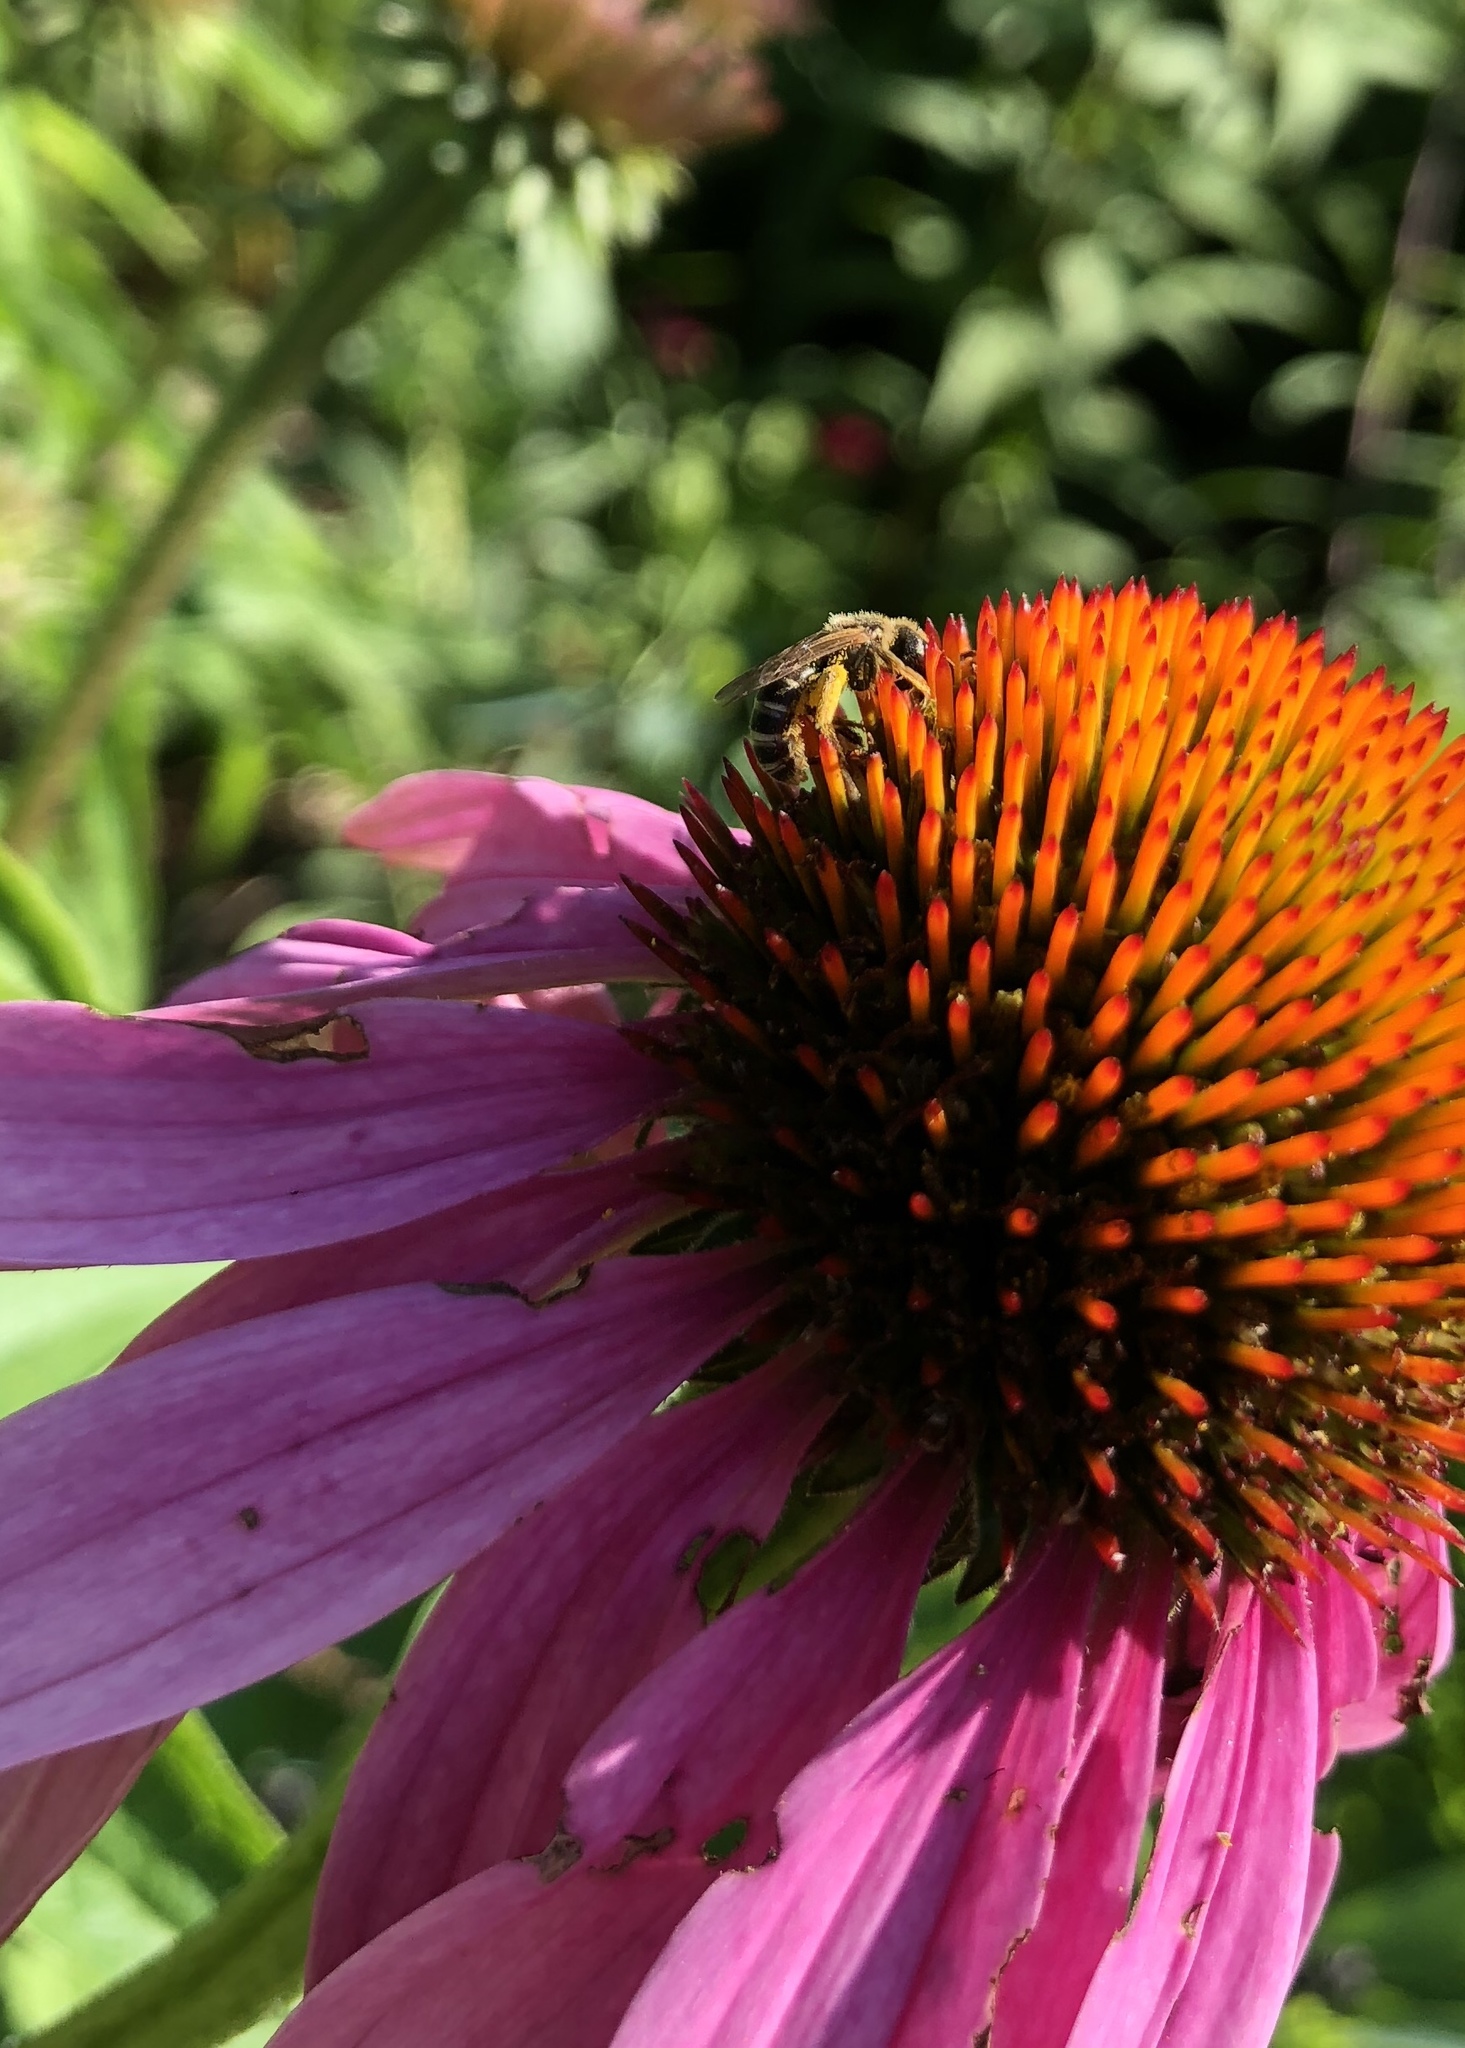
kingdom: Animalia
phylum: Arthropoda
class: Insecta
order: Hymenoptera
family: Halictidae
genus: Halictus
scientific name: Halictus ligatus
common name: Ligated furrow bee
